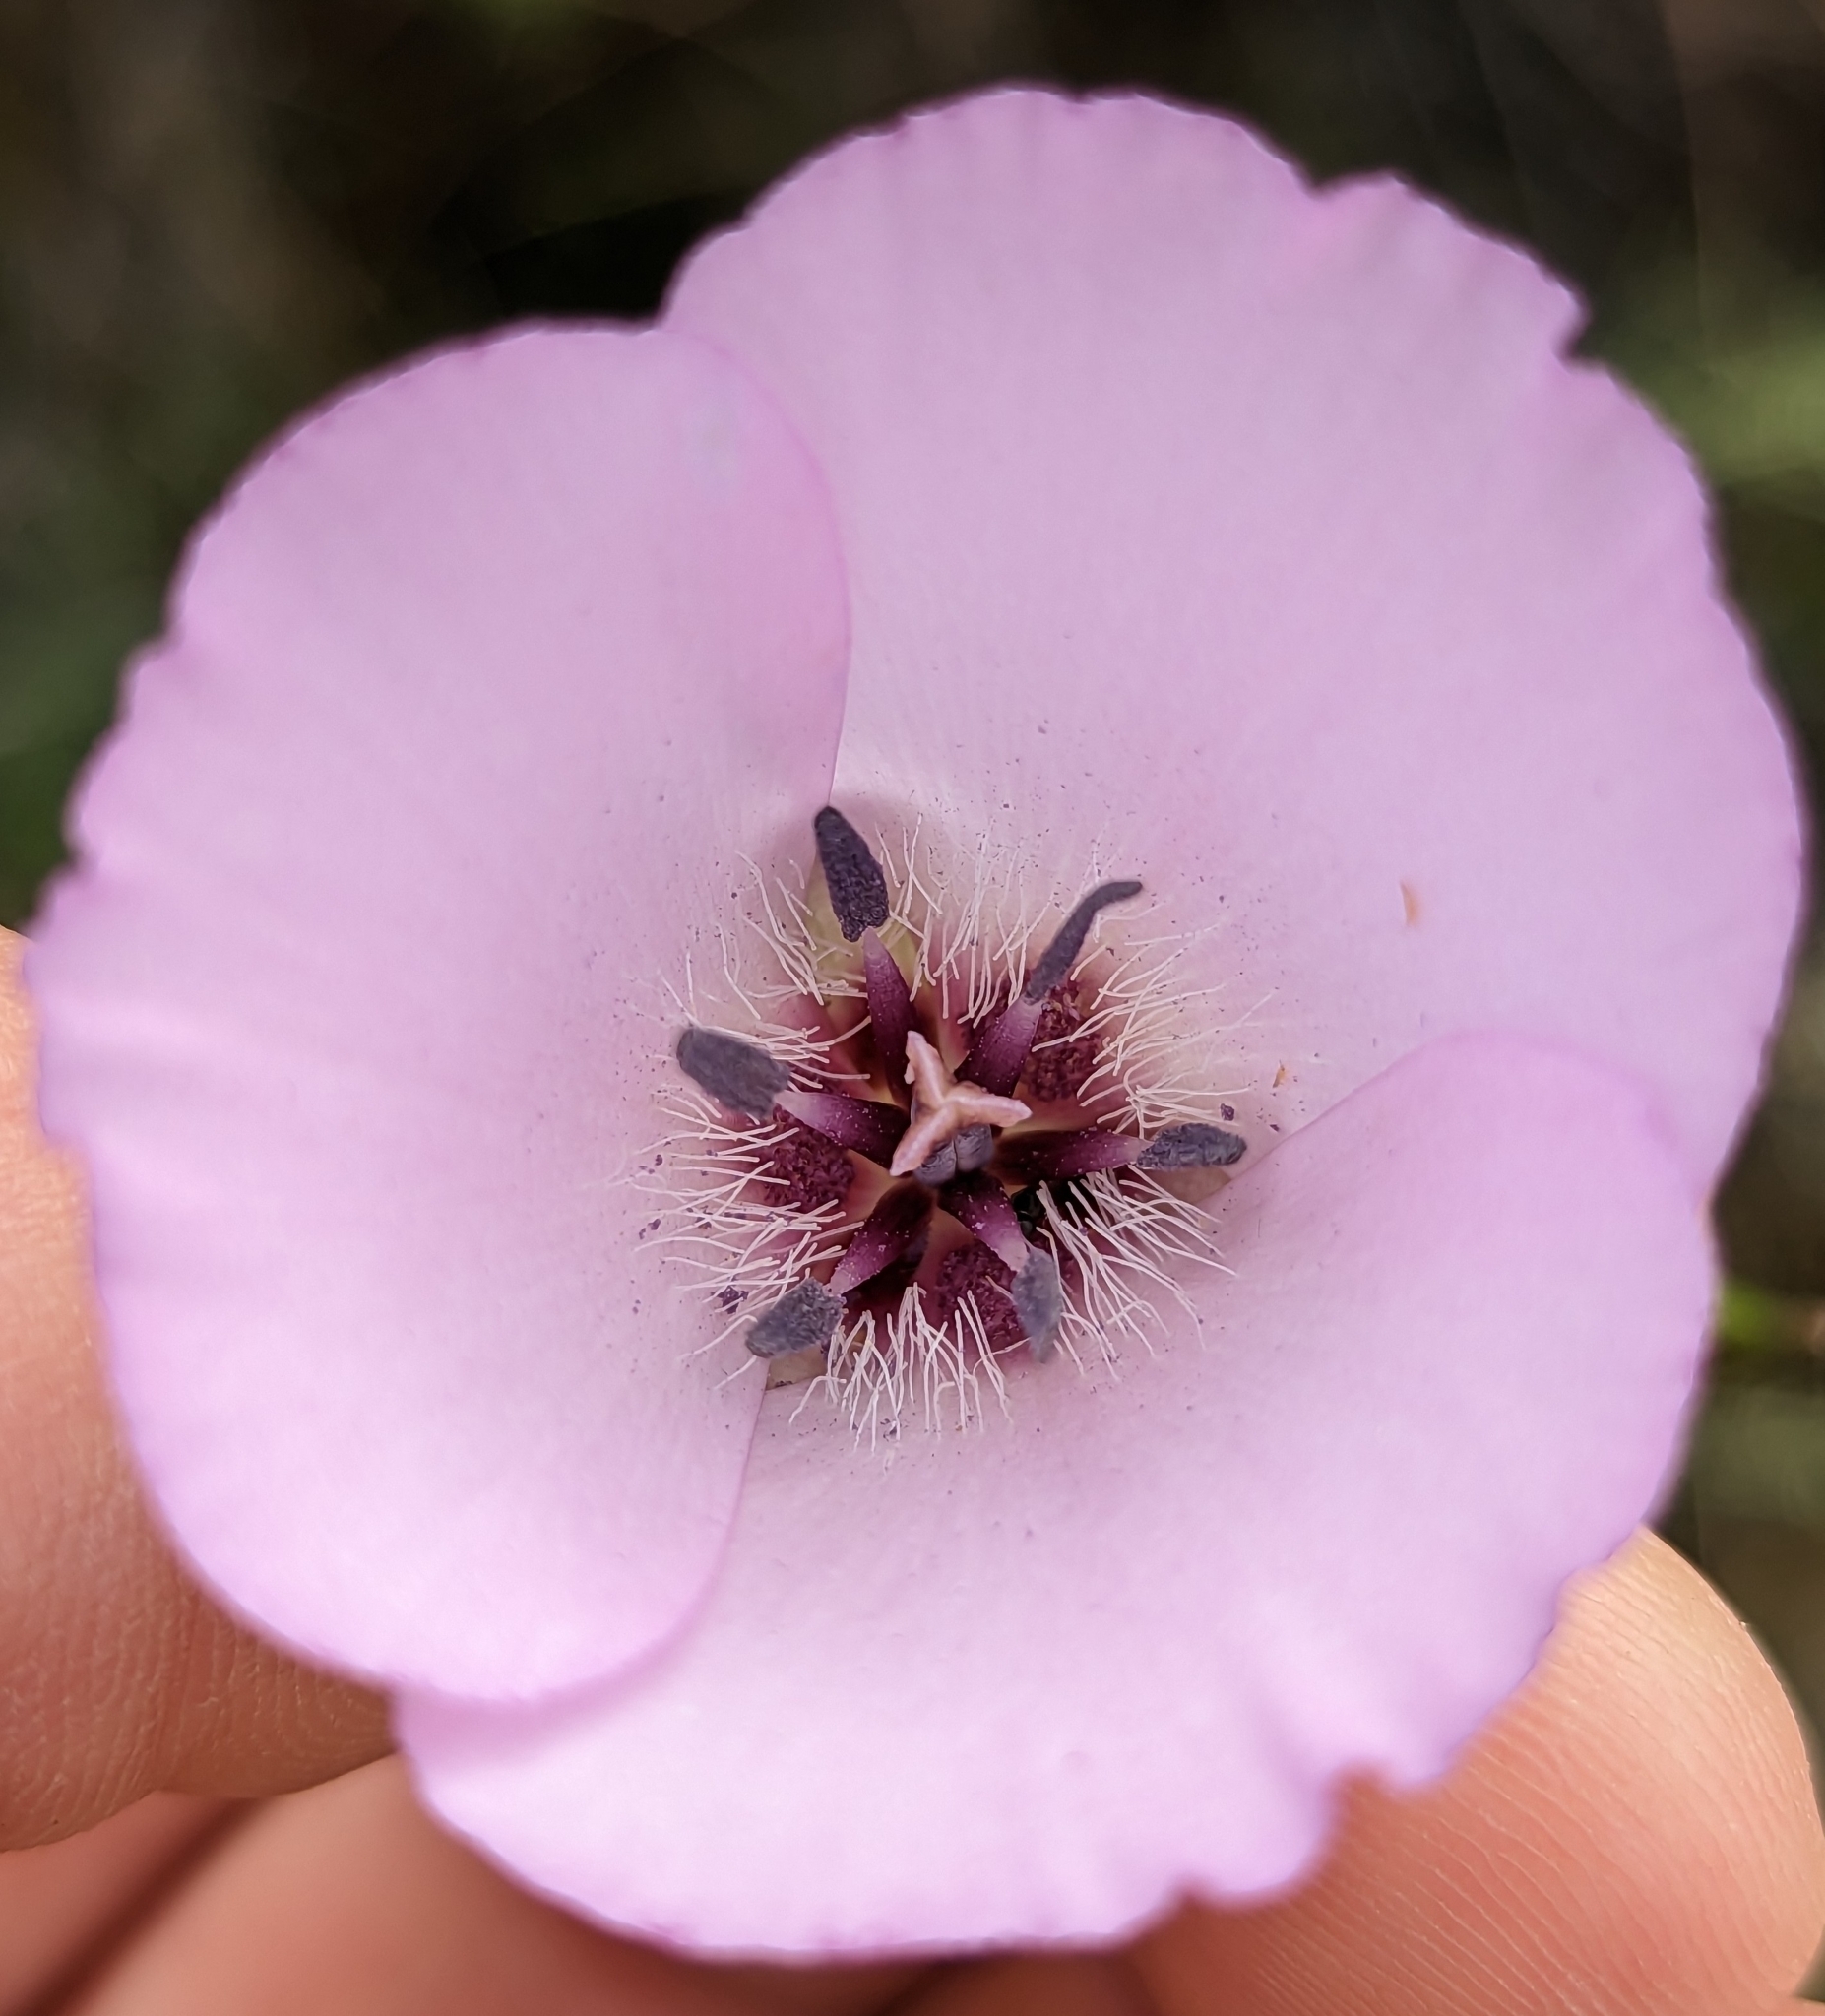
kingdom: Plantae
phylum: Tracheophyta
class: Liliopsida
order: Liliales
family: Liliaceae
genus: Calochortus
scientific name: Calochortus splendens
